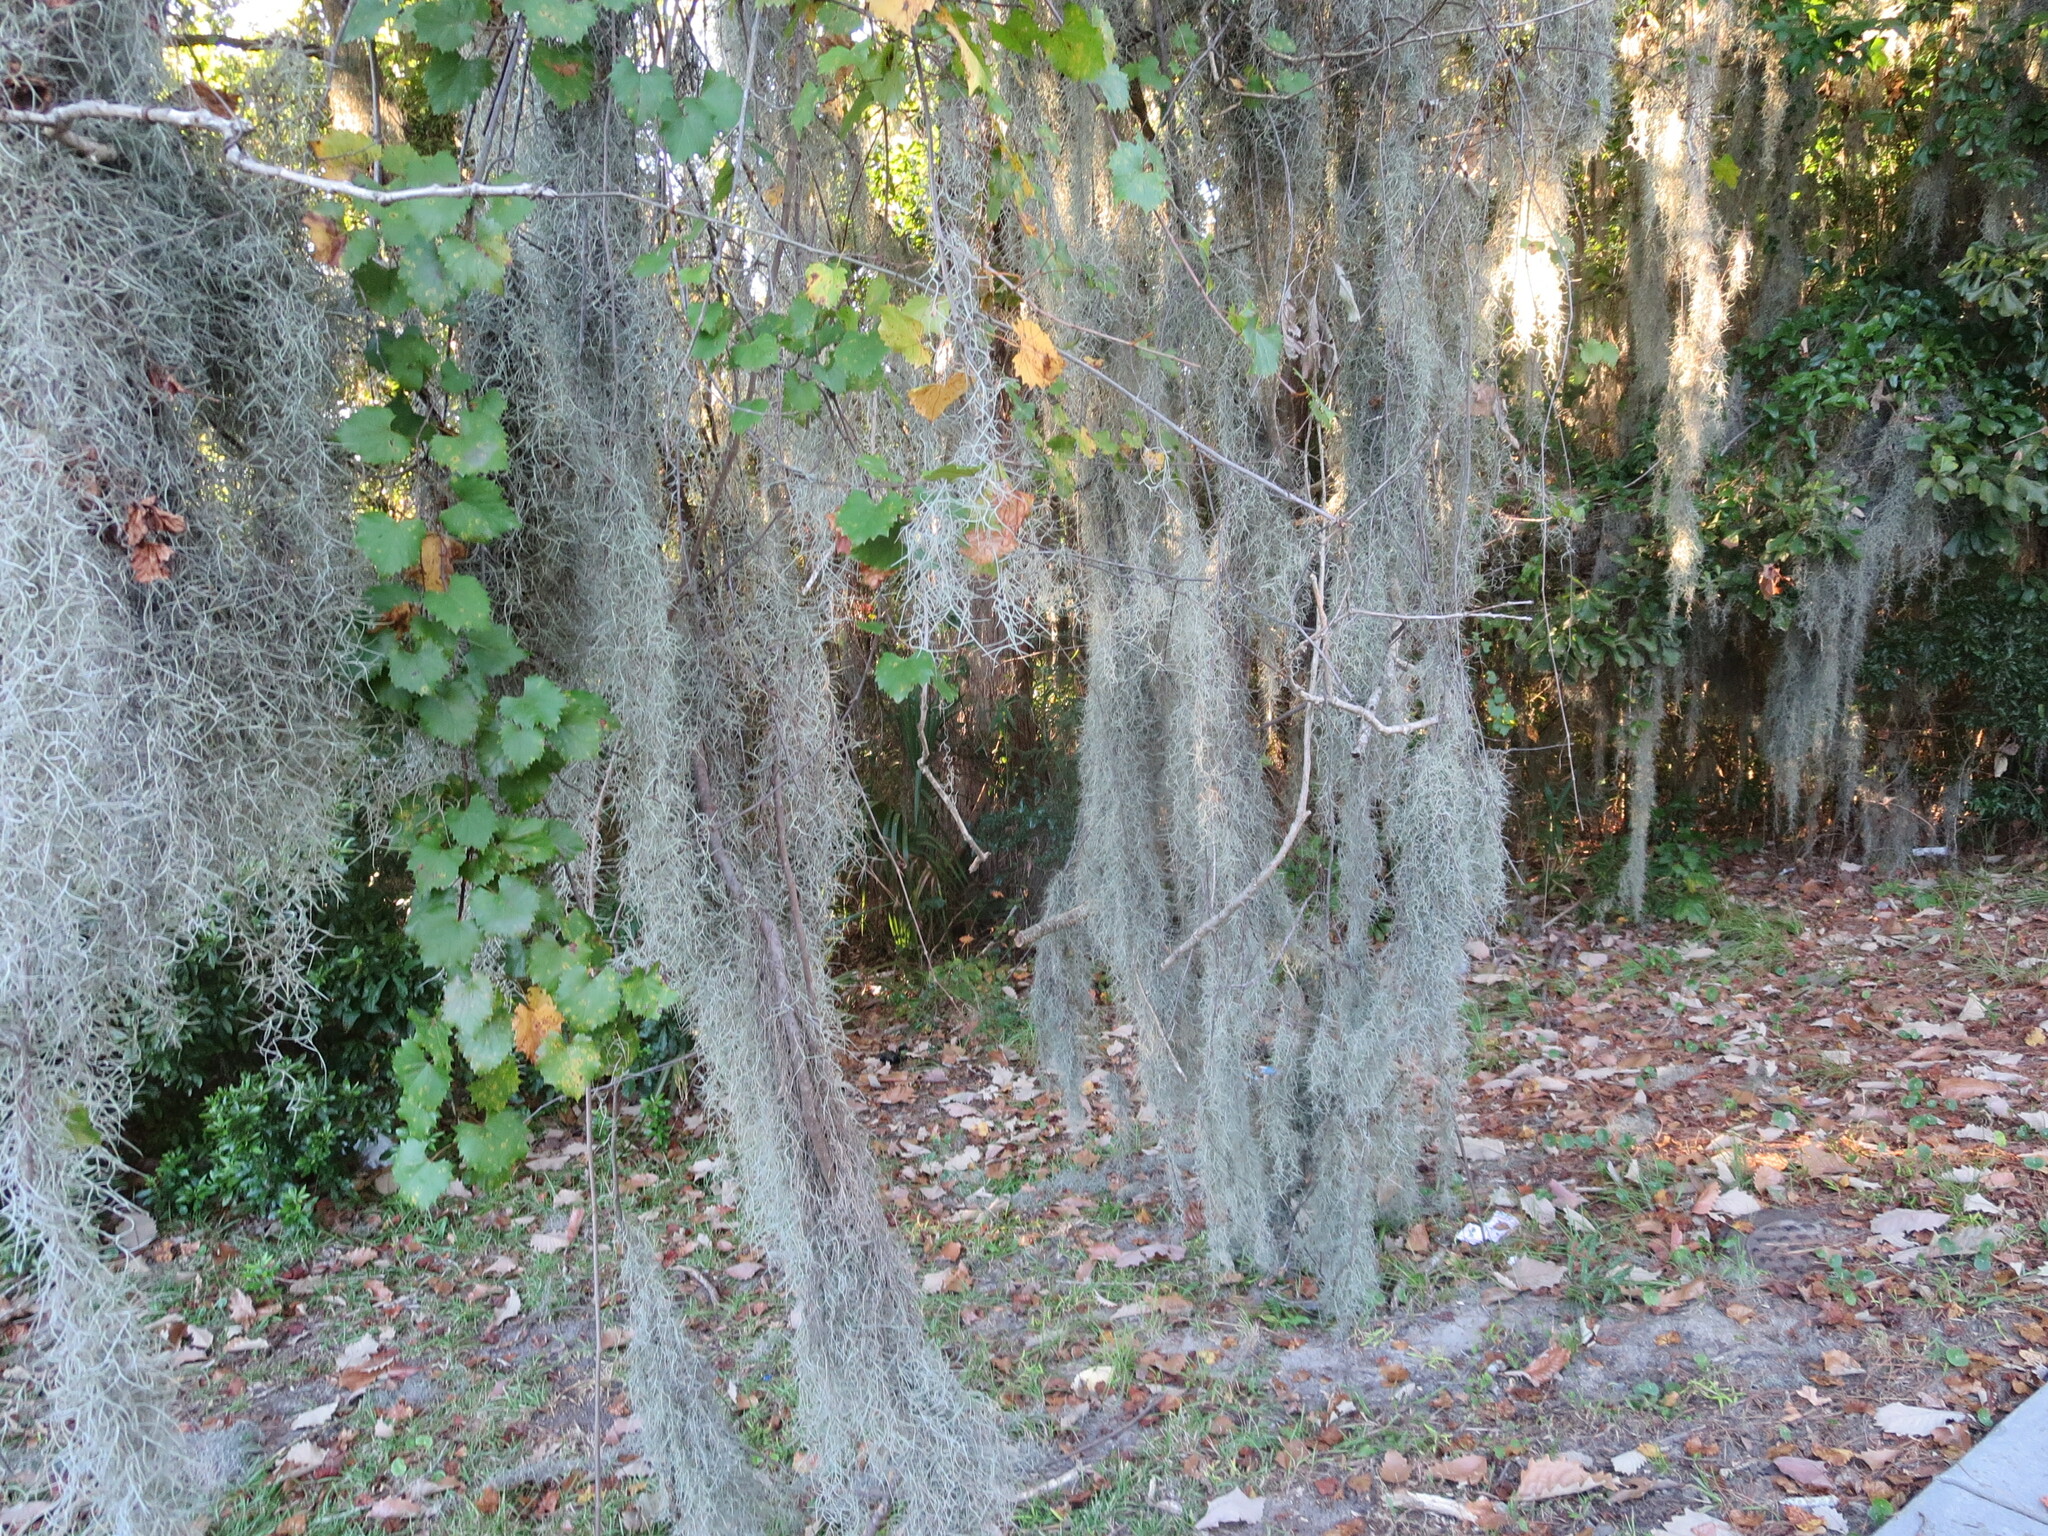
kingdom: Plantae
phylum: Tracheophyta
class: Liliopsida
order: Poales
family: Bromeliaceae
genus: Tillandsia
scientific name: Tillandsia usneoides
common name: Spanish moss
